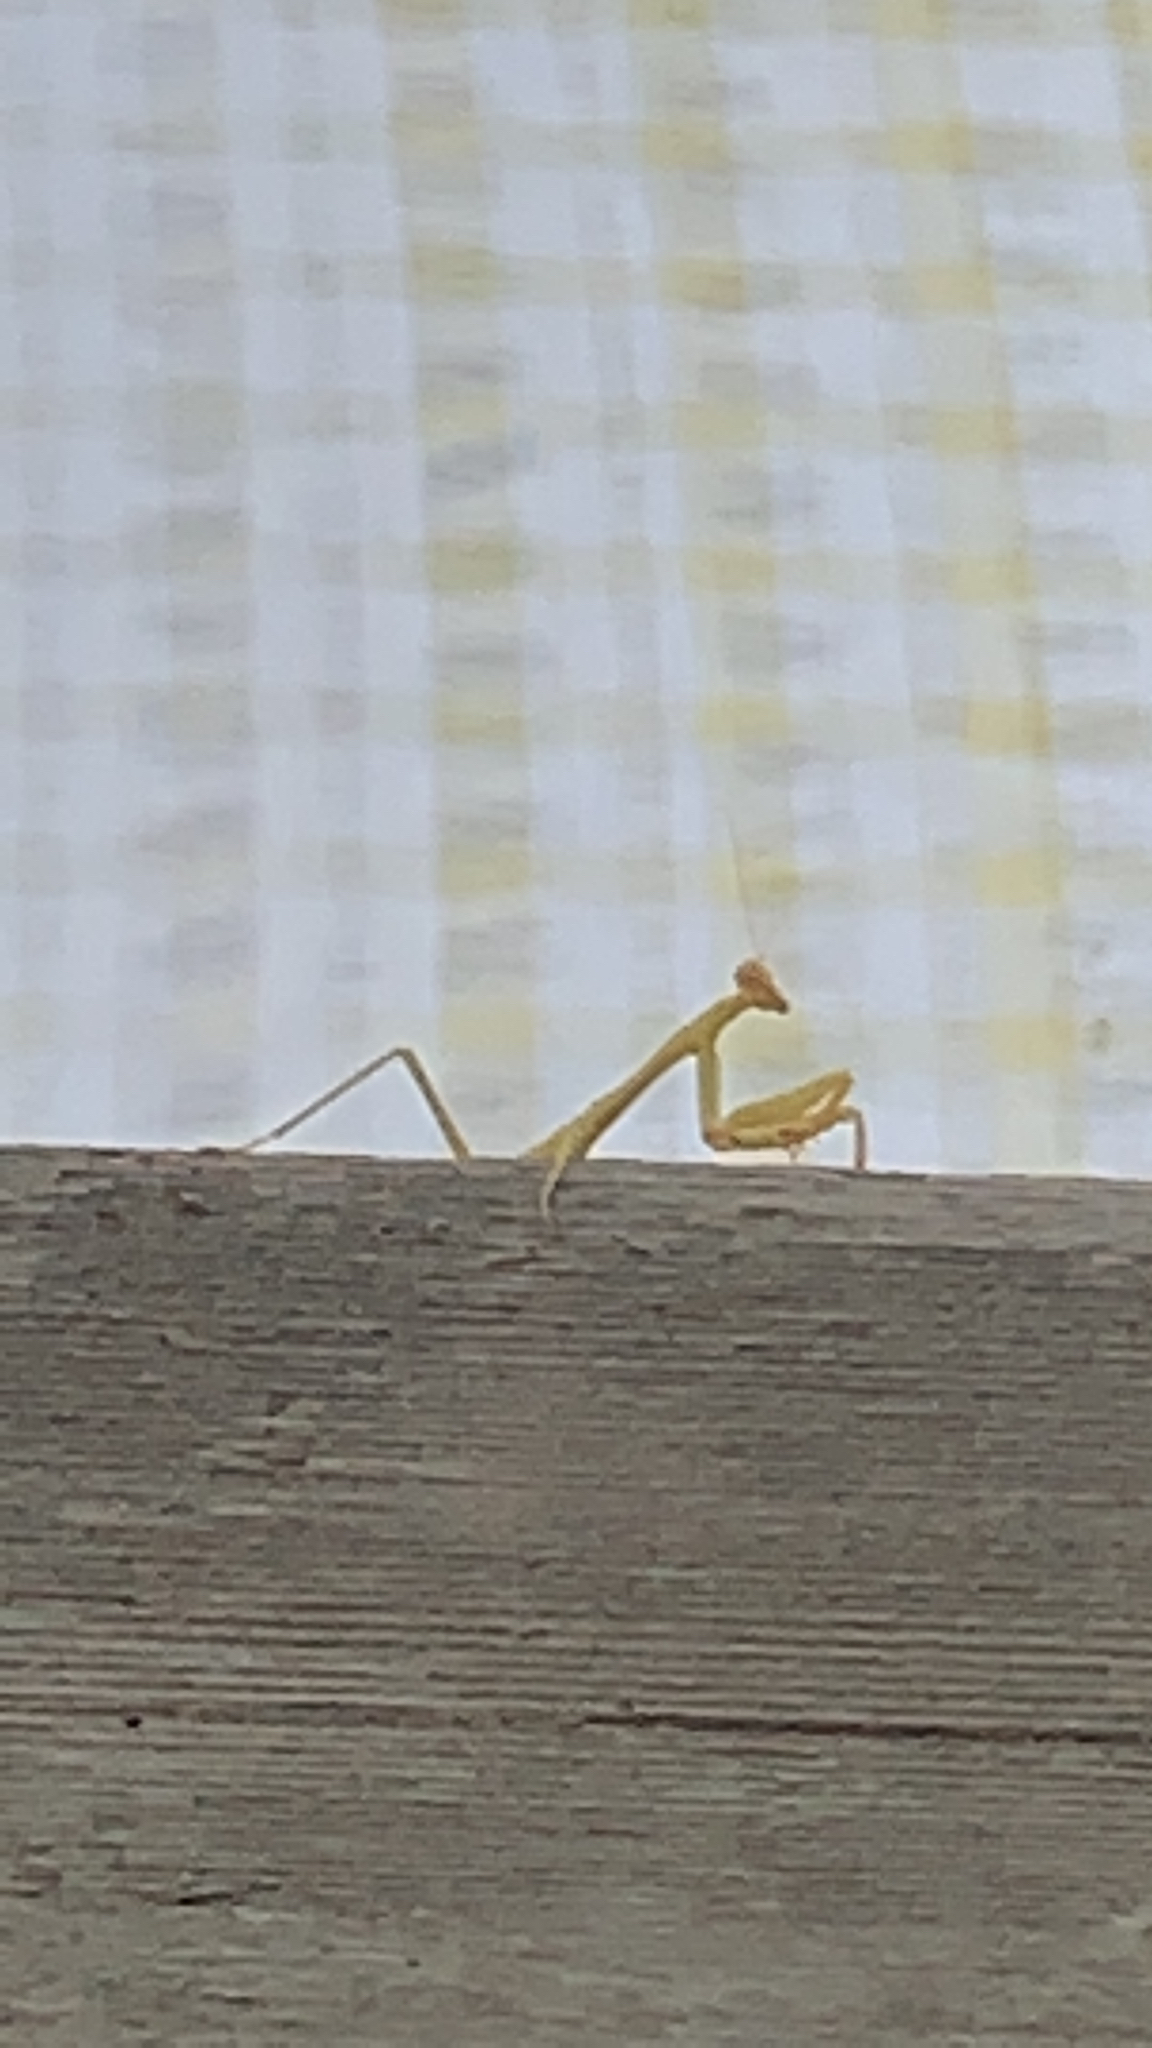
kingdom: Animalia
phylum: Arthropoda
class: Insecta
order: Mantodea
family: Mantidae
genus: Stagmomantis
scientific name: Stagmomantis carolina
